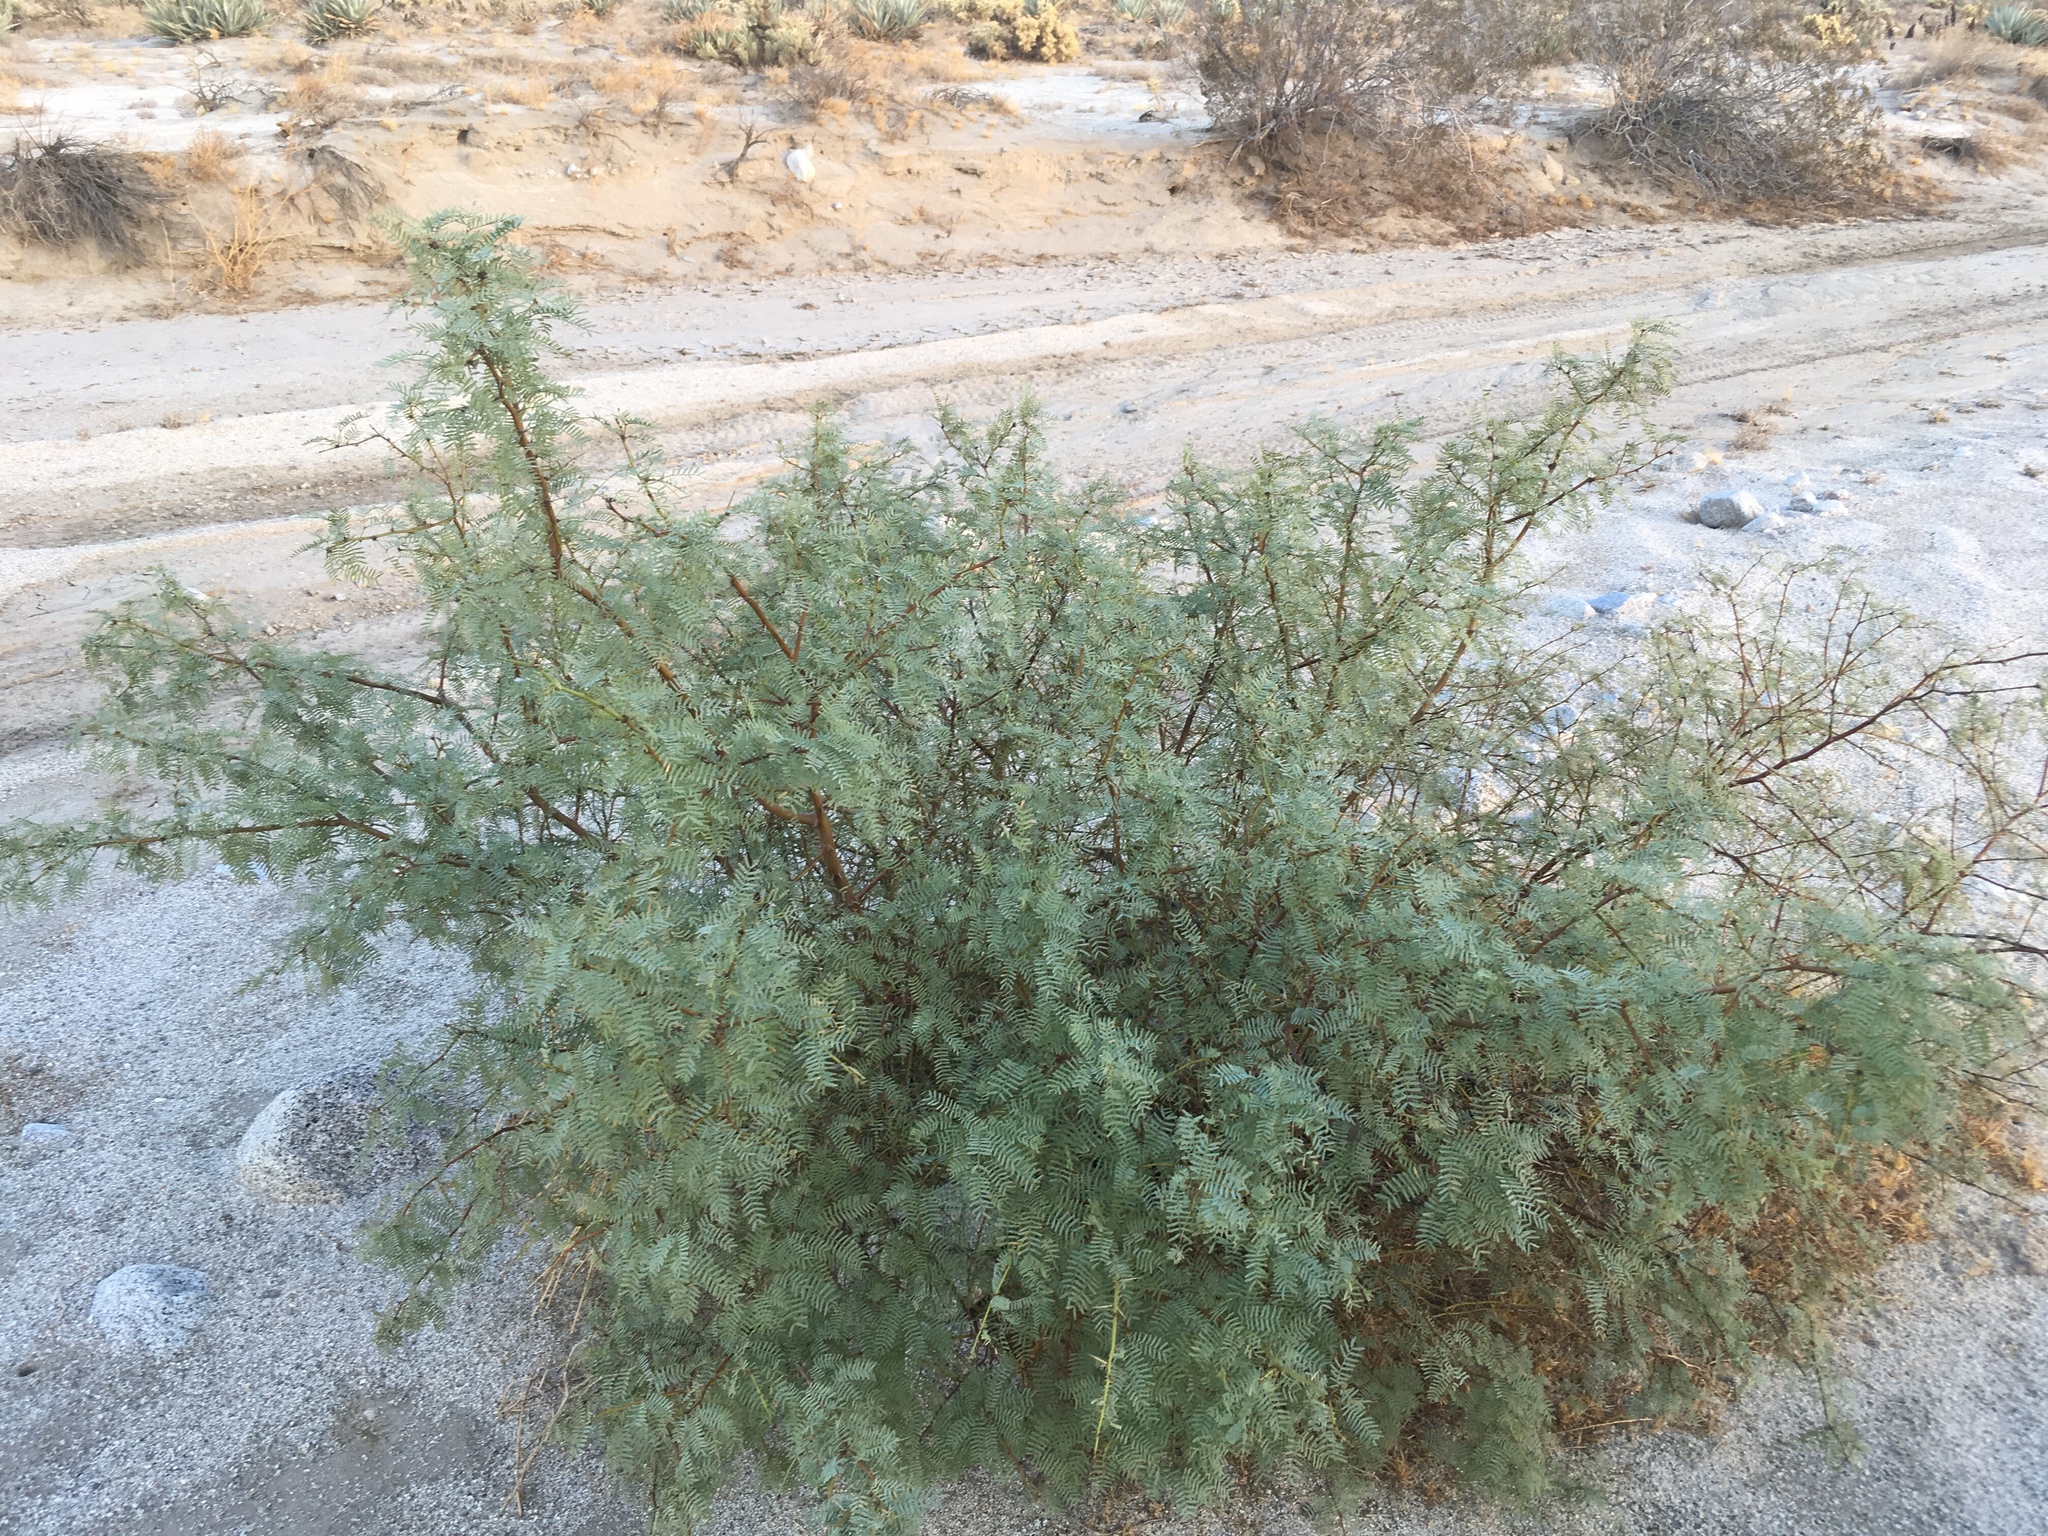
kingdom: Plantae
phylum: Tracheophyta
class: Magnoliopsida
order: Fabales
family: Fabaceae
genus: Prosopis
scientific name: Prosopis pubescens
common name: Screw-bean
